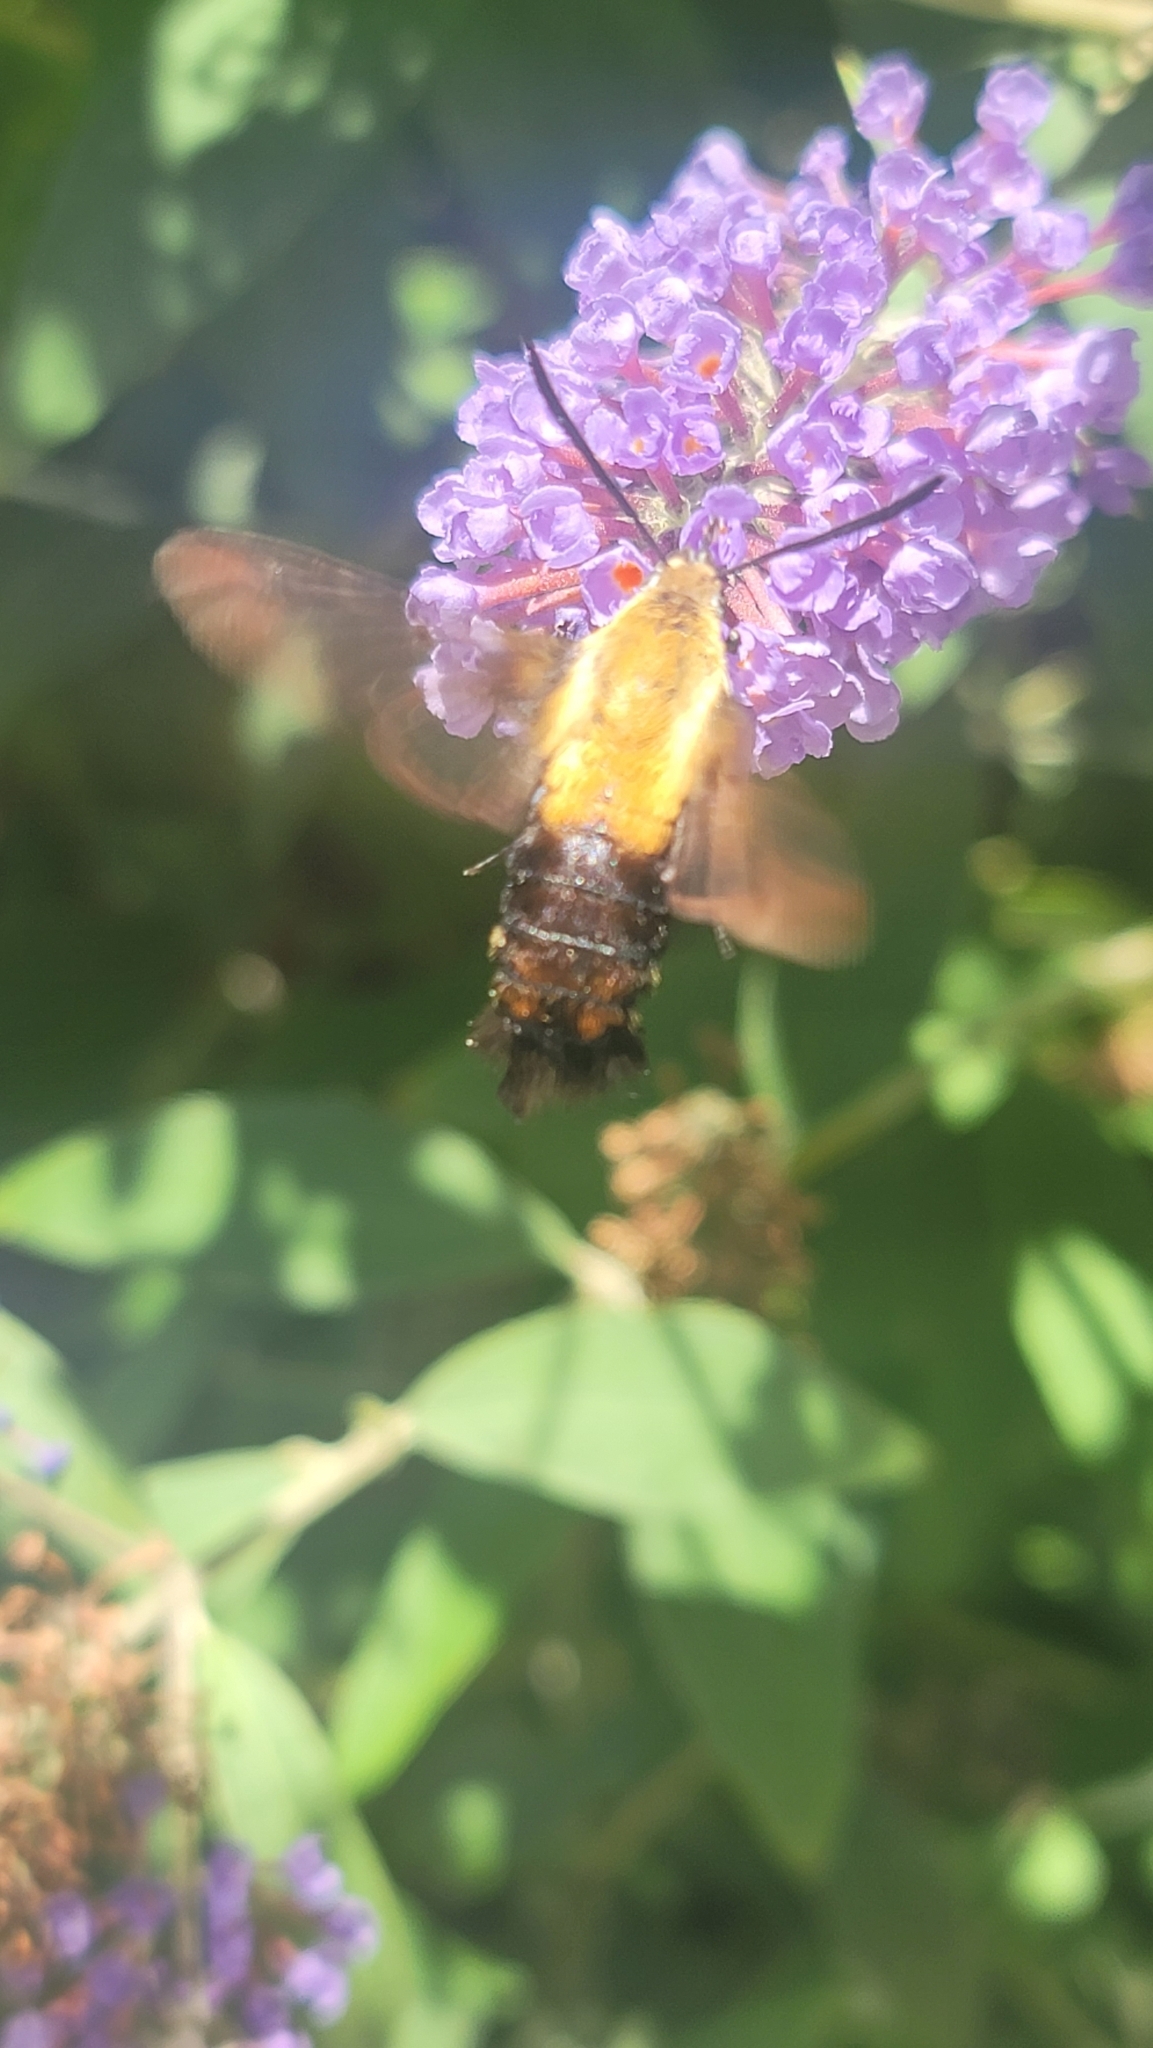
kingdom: Animalia
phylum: Arthropoda
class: Insecta
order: Lepidoptera
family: Sphingidae
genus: Hemaris
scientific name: Hemaris diffinis
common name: Bumblebee moth
